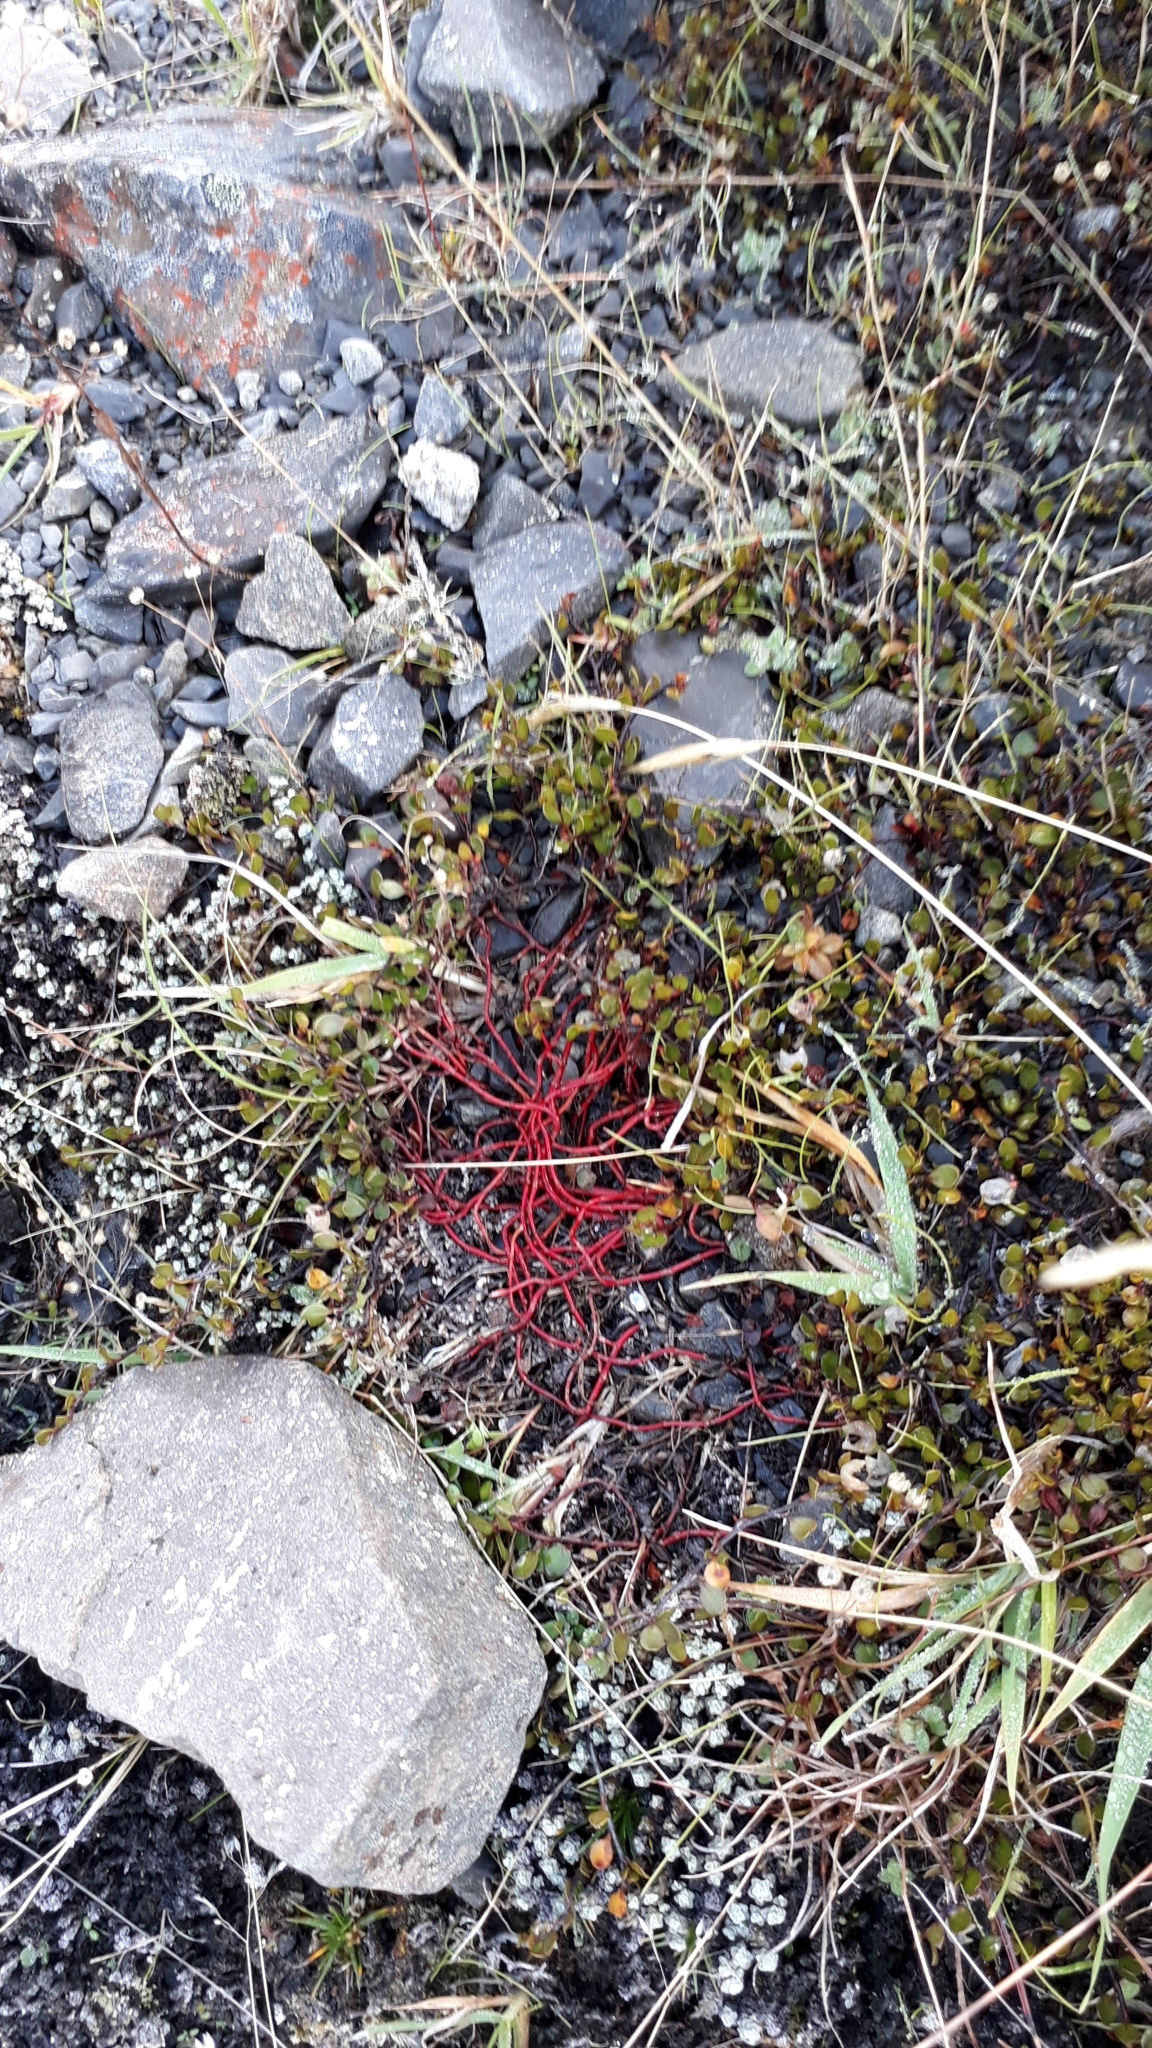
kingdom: Plantae
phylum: Tracheophyta
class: Magnoliopsida
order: Caryophyllales
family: Polygonaceae
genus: Muehlenbeckia
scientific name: Muehlenbeckia axillaris
